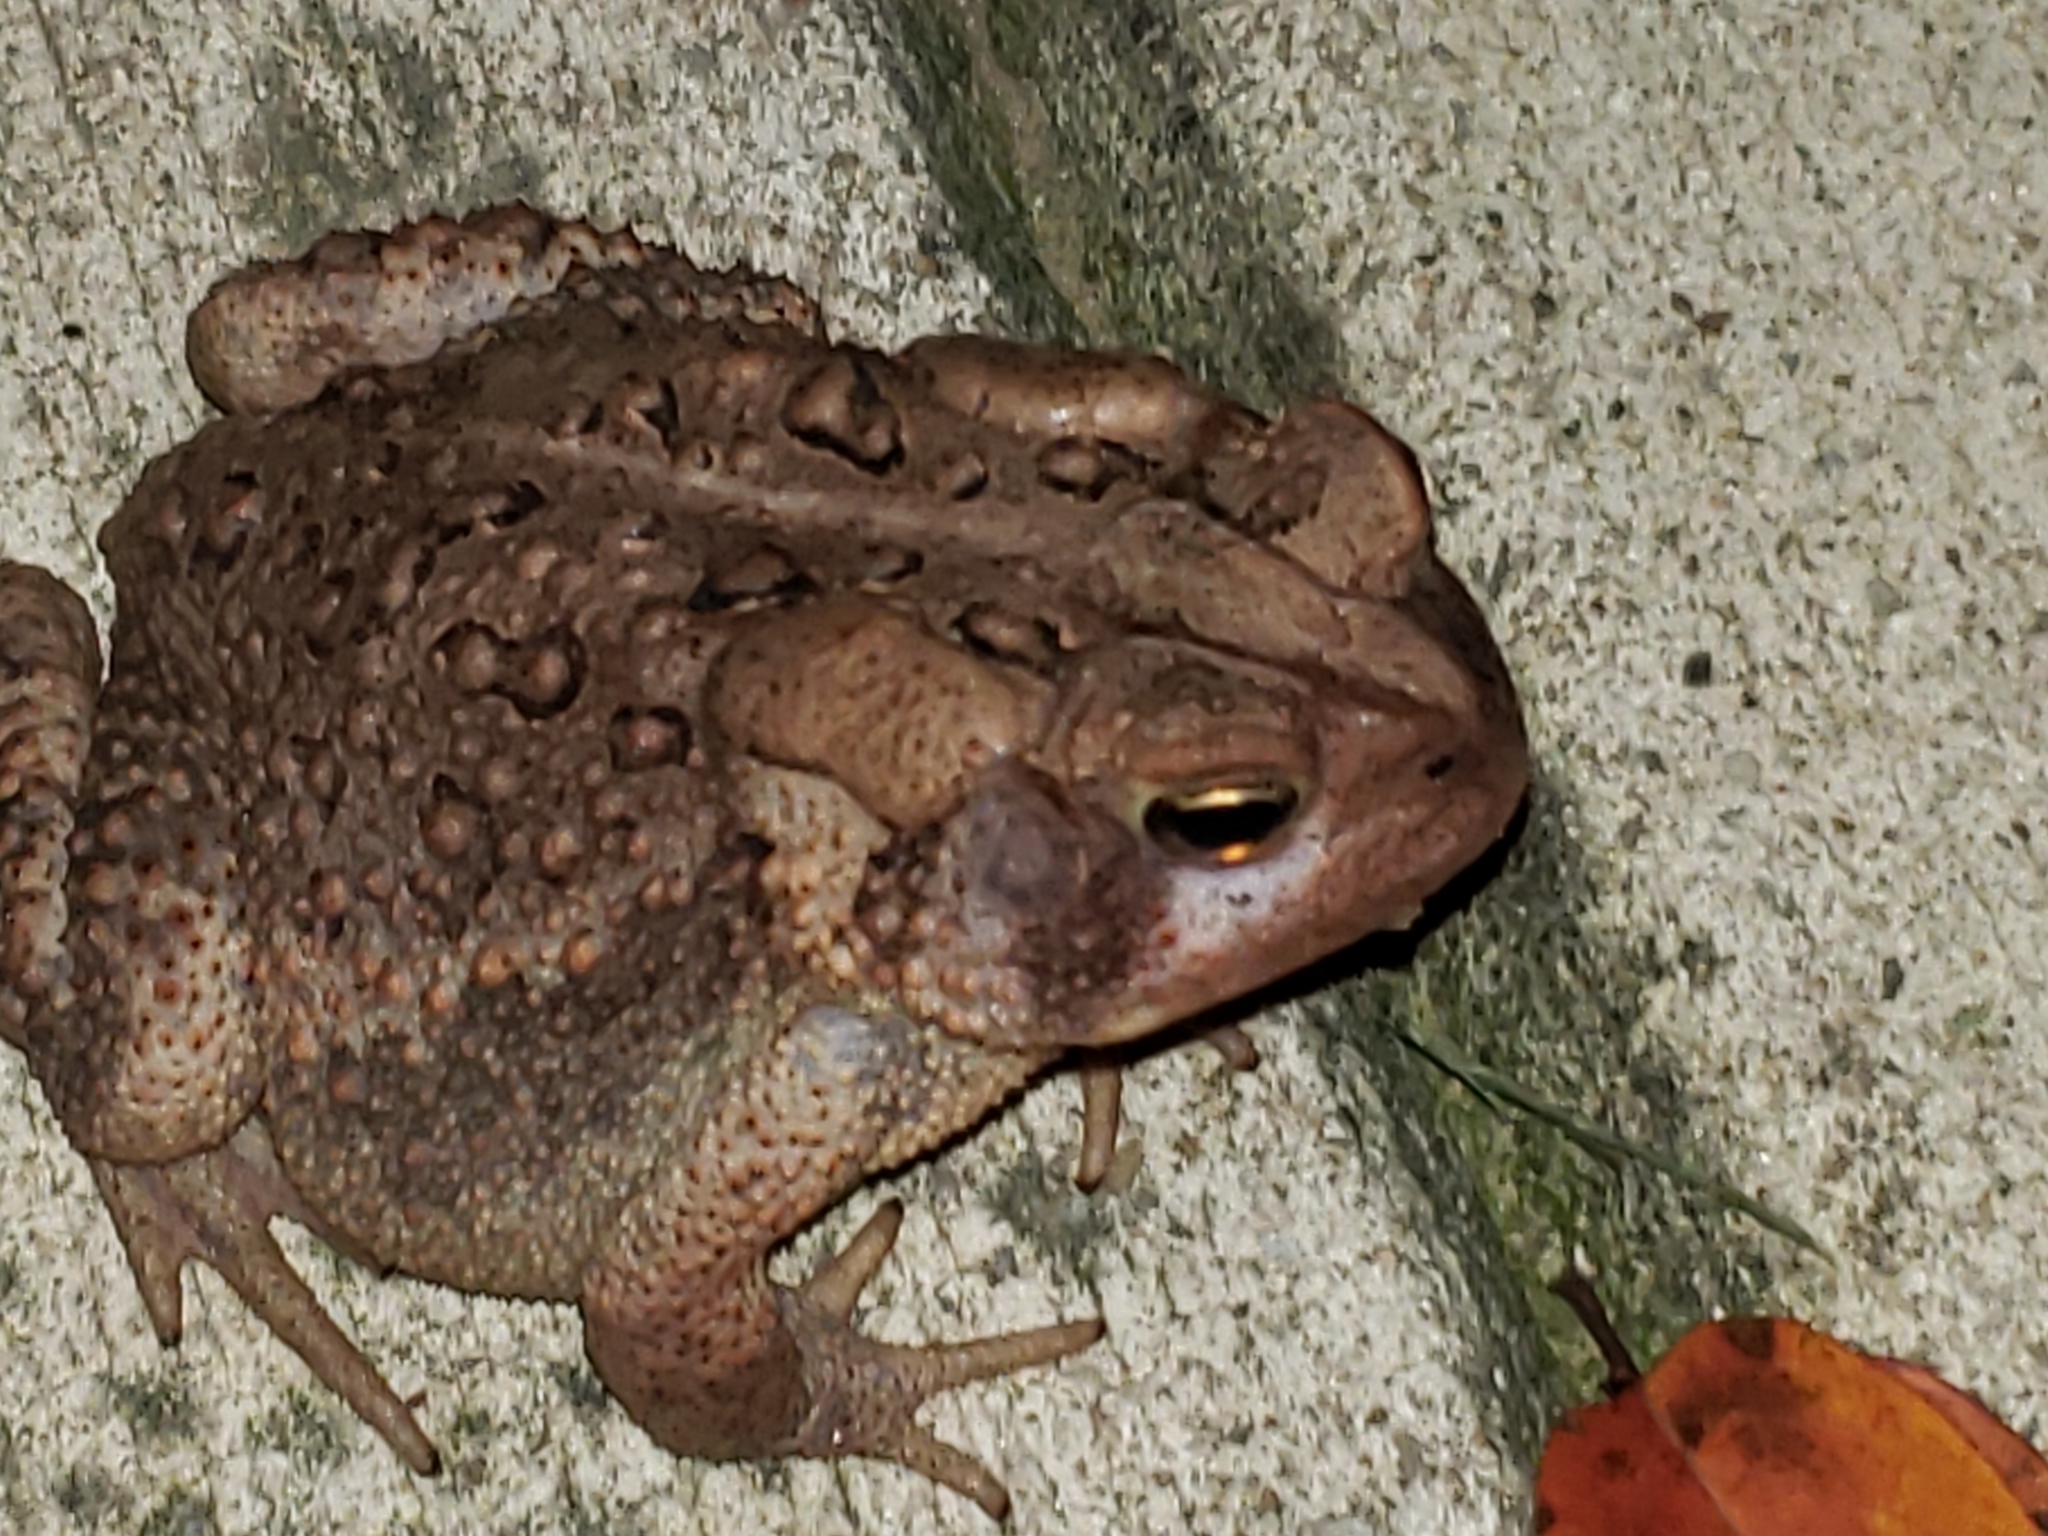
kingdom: Animalia
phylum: Chordata
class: Amphibia
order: Anura
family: Bufonidae
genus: Anaxyrus
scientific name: Anaxyrus americanus
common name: American toad
